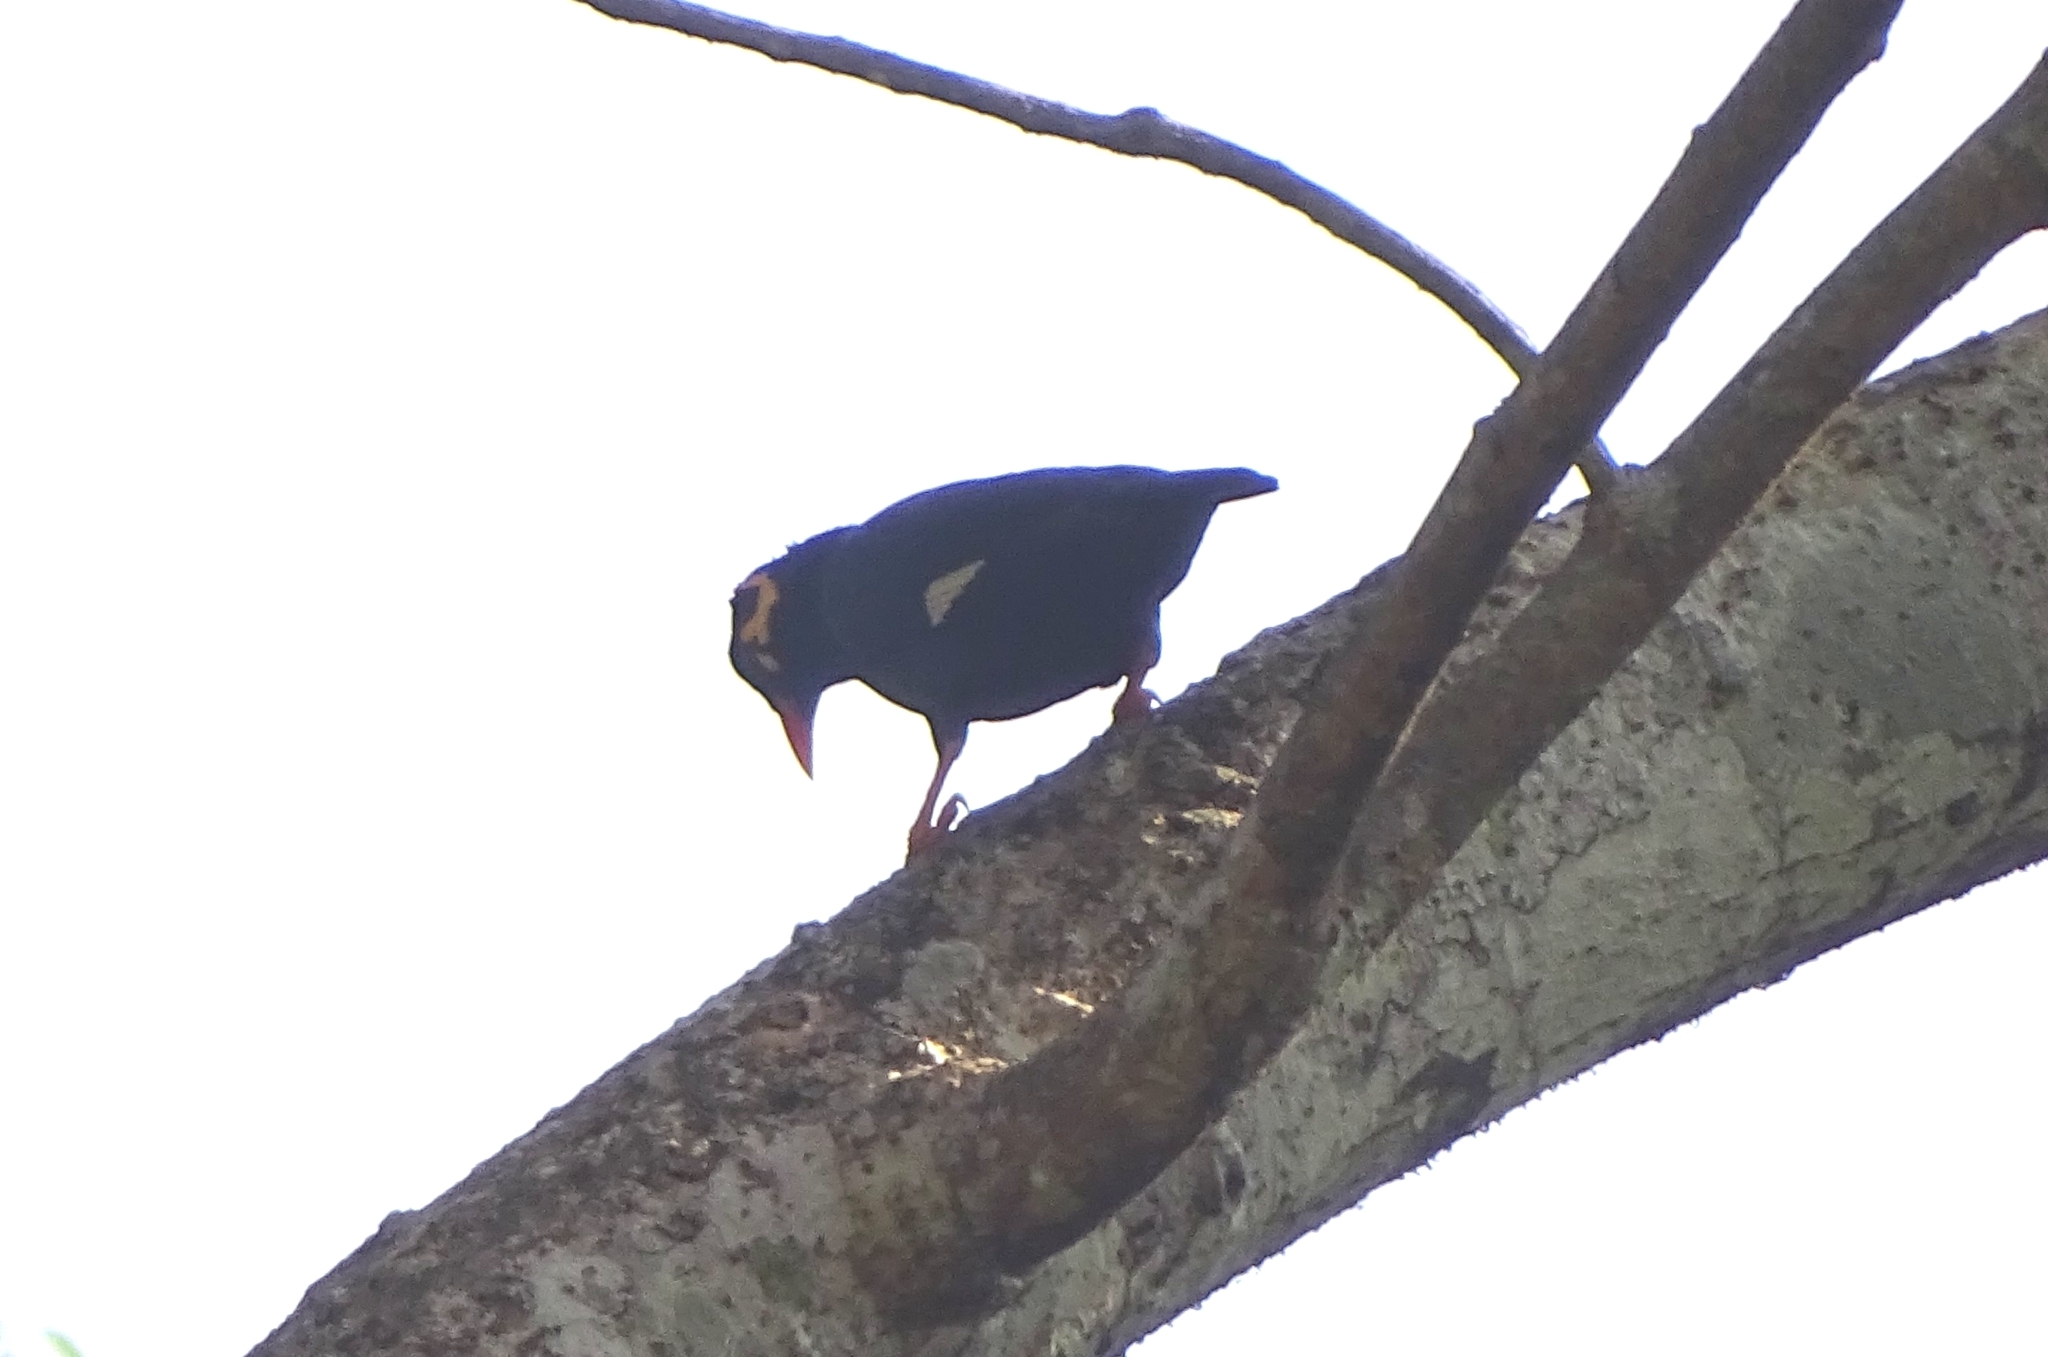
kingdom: Animalia
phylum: Chordata
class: Aves
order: Passeriformes
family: Sturnidae
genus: Gracula
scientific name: Gracula indica
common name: Southern hill myna
